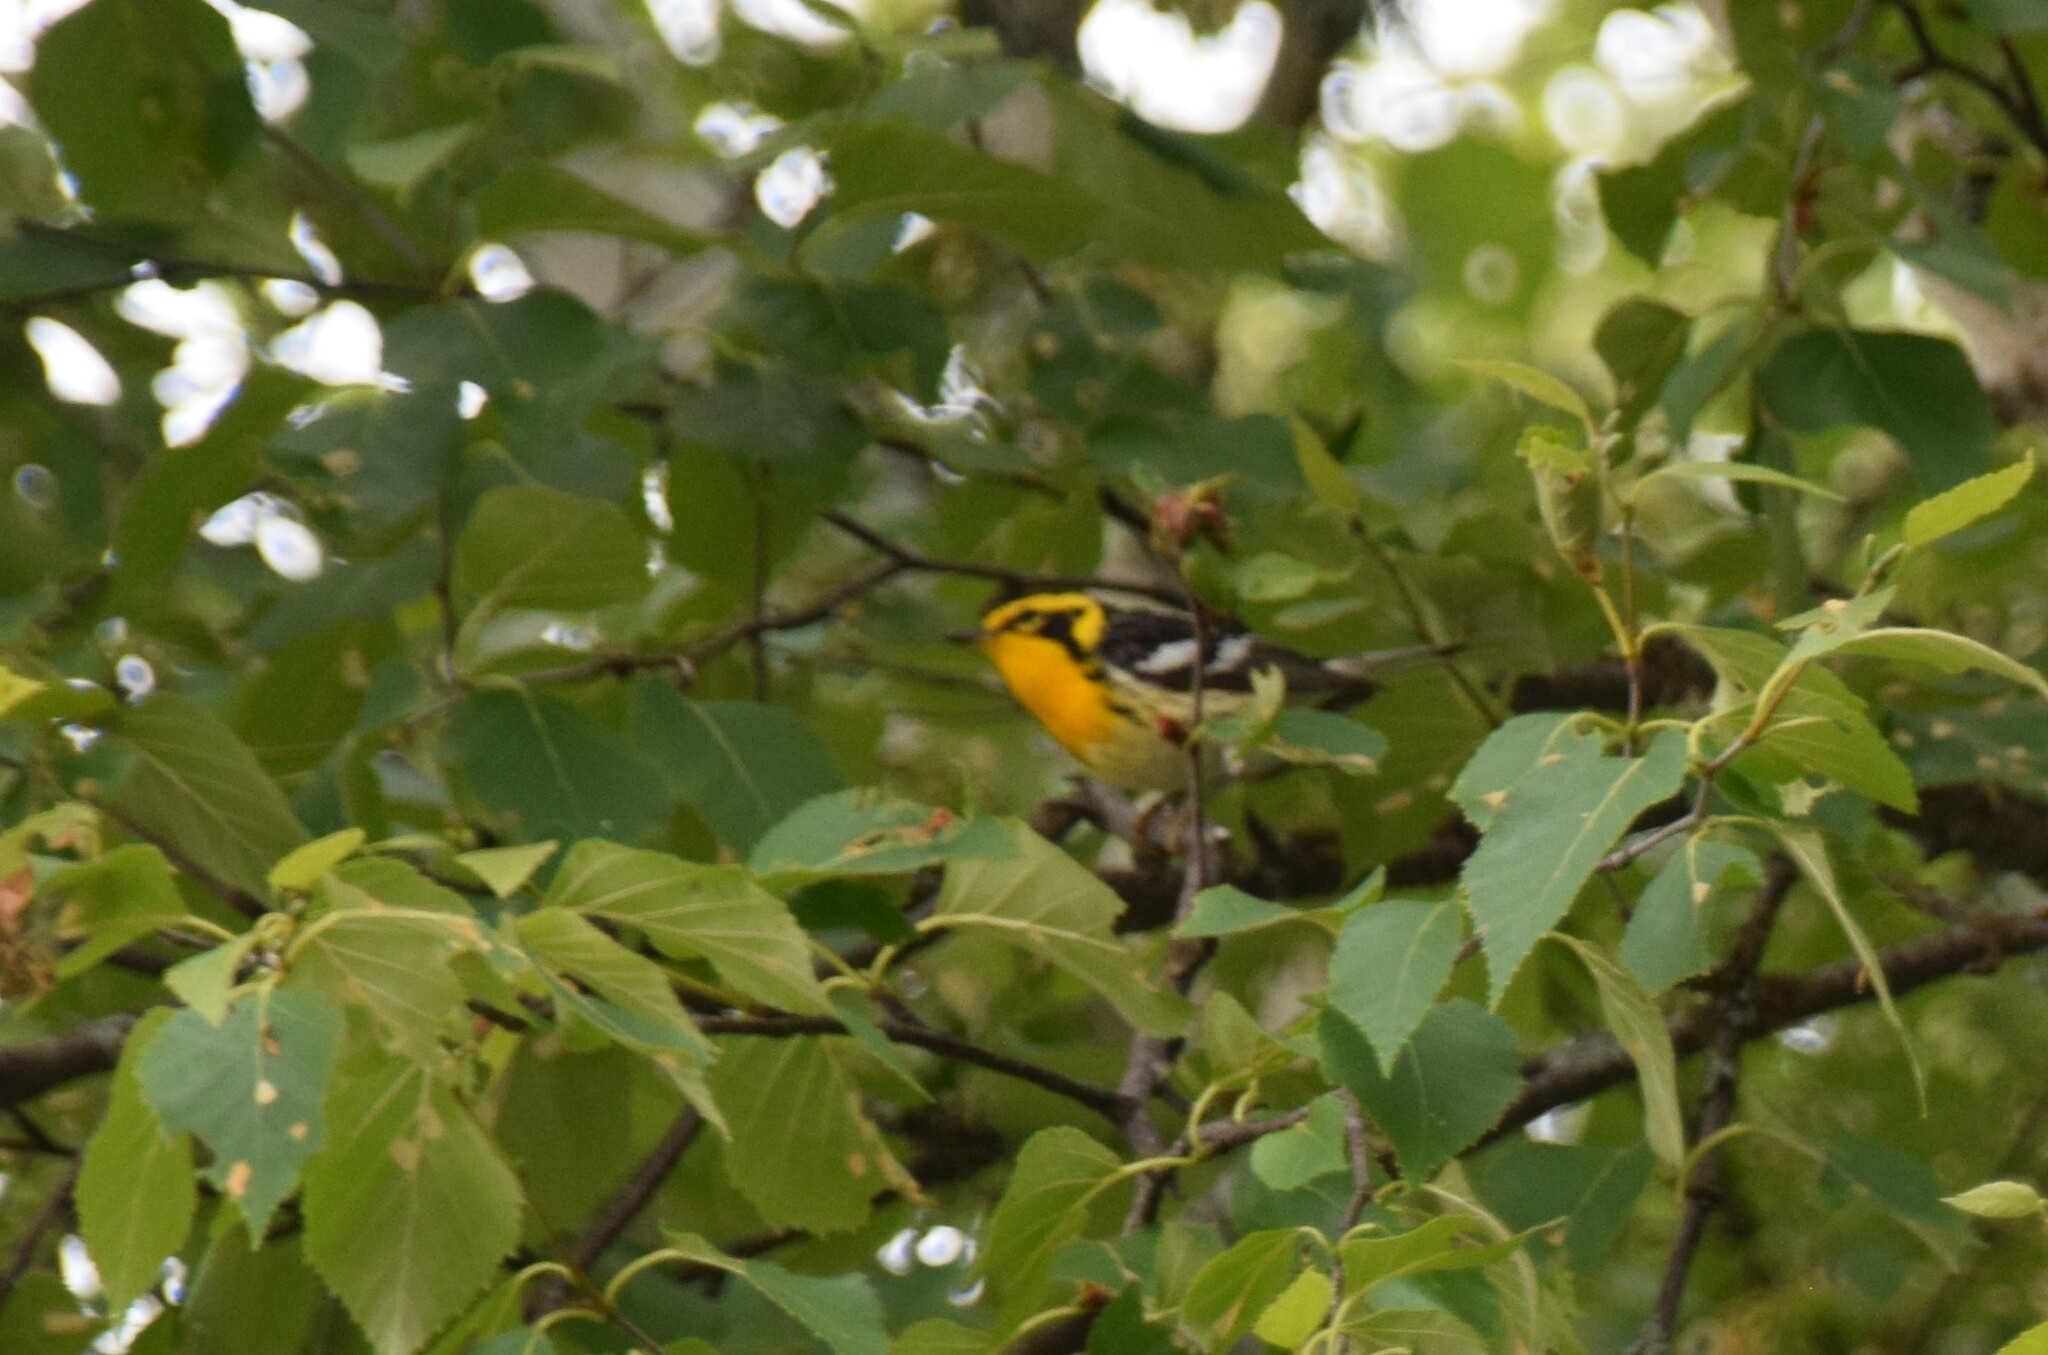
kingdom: Animalia
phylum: Chordata
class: Aves
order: Passeriformes
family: Parulidae
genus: Setophaga
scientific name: Setophaga fusca
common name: Blackburnian warbler
